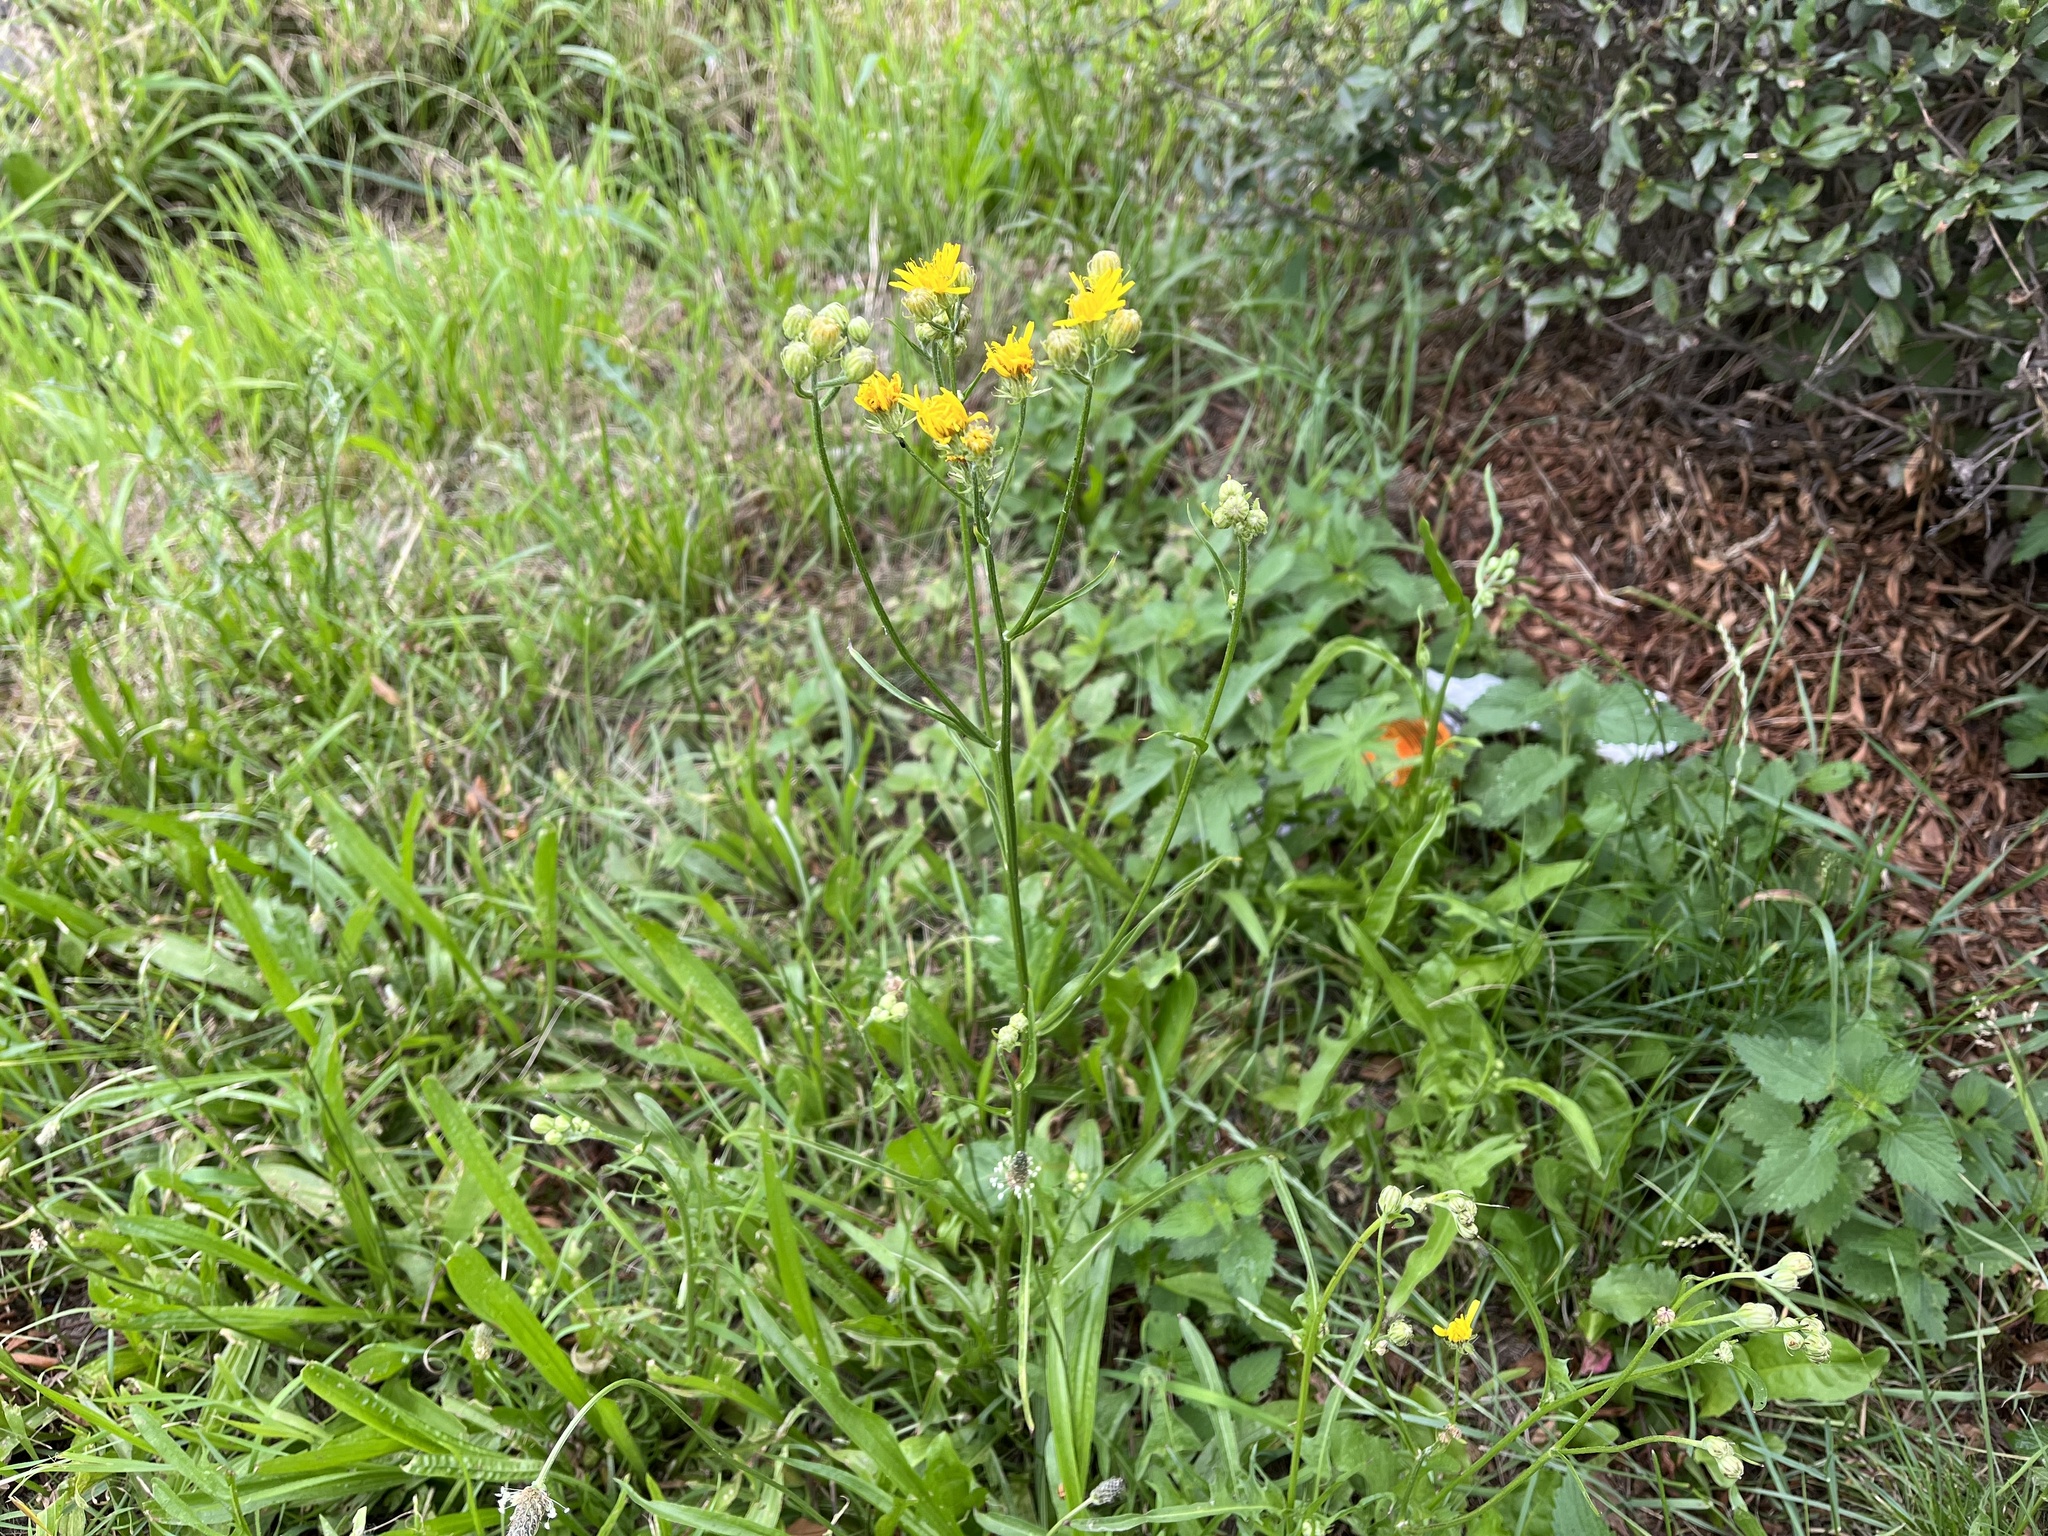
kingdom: Plantae
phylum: Tracheophyta
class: Magnoliopsida
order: Asterales
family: Asteraceae
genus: Crepis
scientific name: Crepis biennis
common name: Rough hawk's-beard
